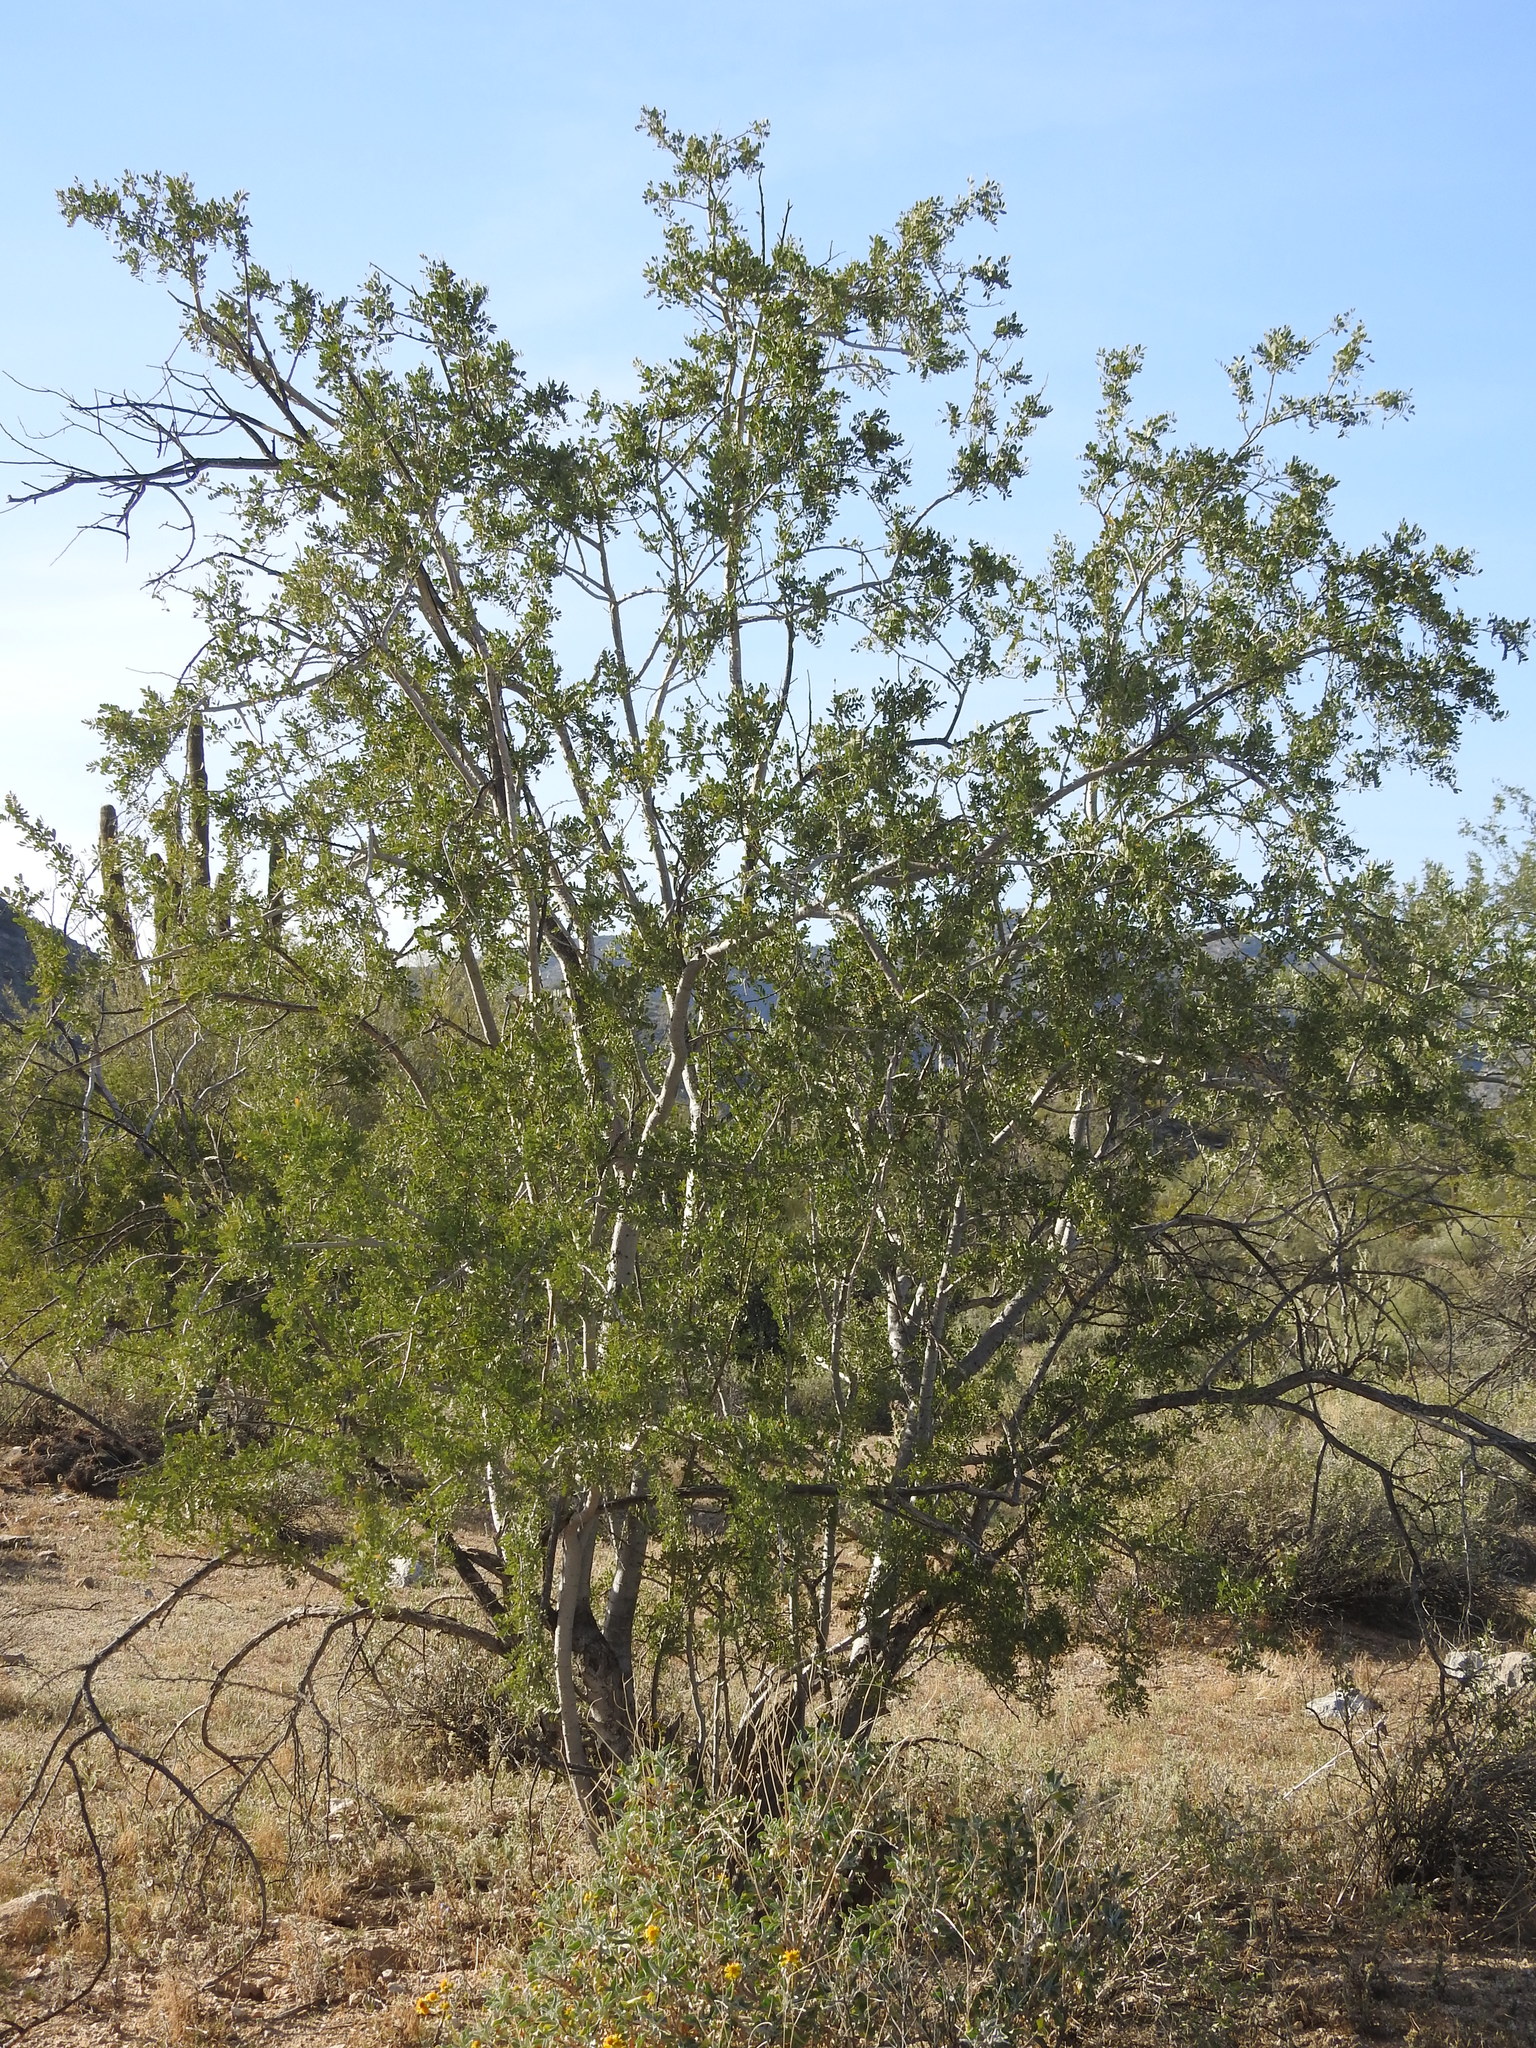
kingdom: Plantae
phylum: Tracheophyta
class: Magnoliopsida
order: Fabales
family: Fabaceae
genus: Olneya
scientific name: Olneya tesota
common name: Desert ironwood
